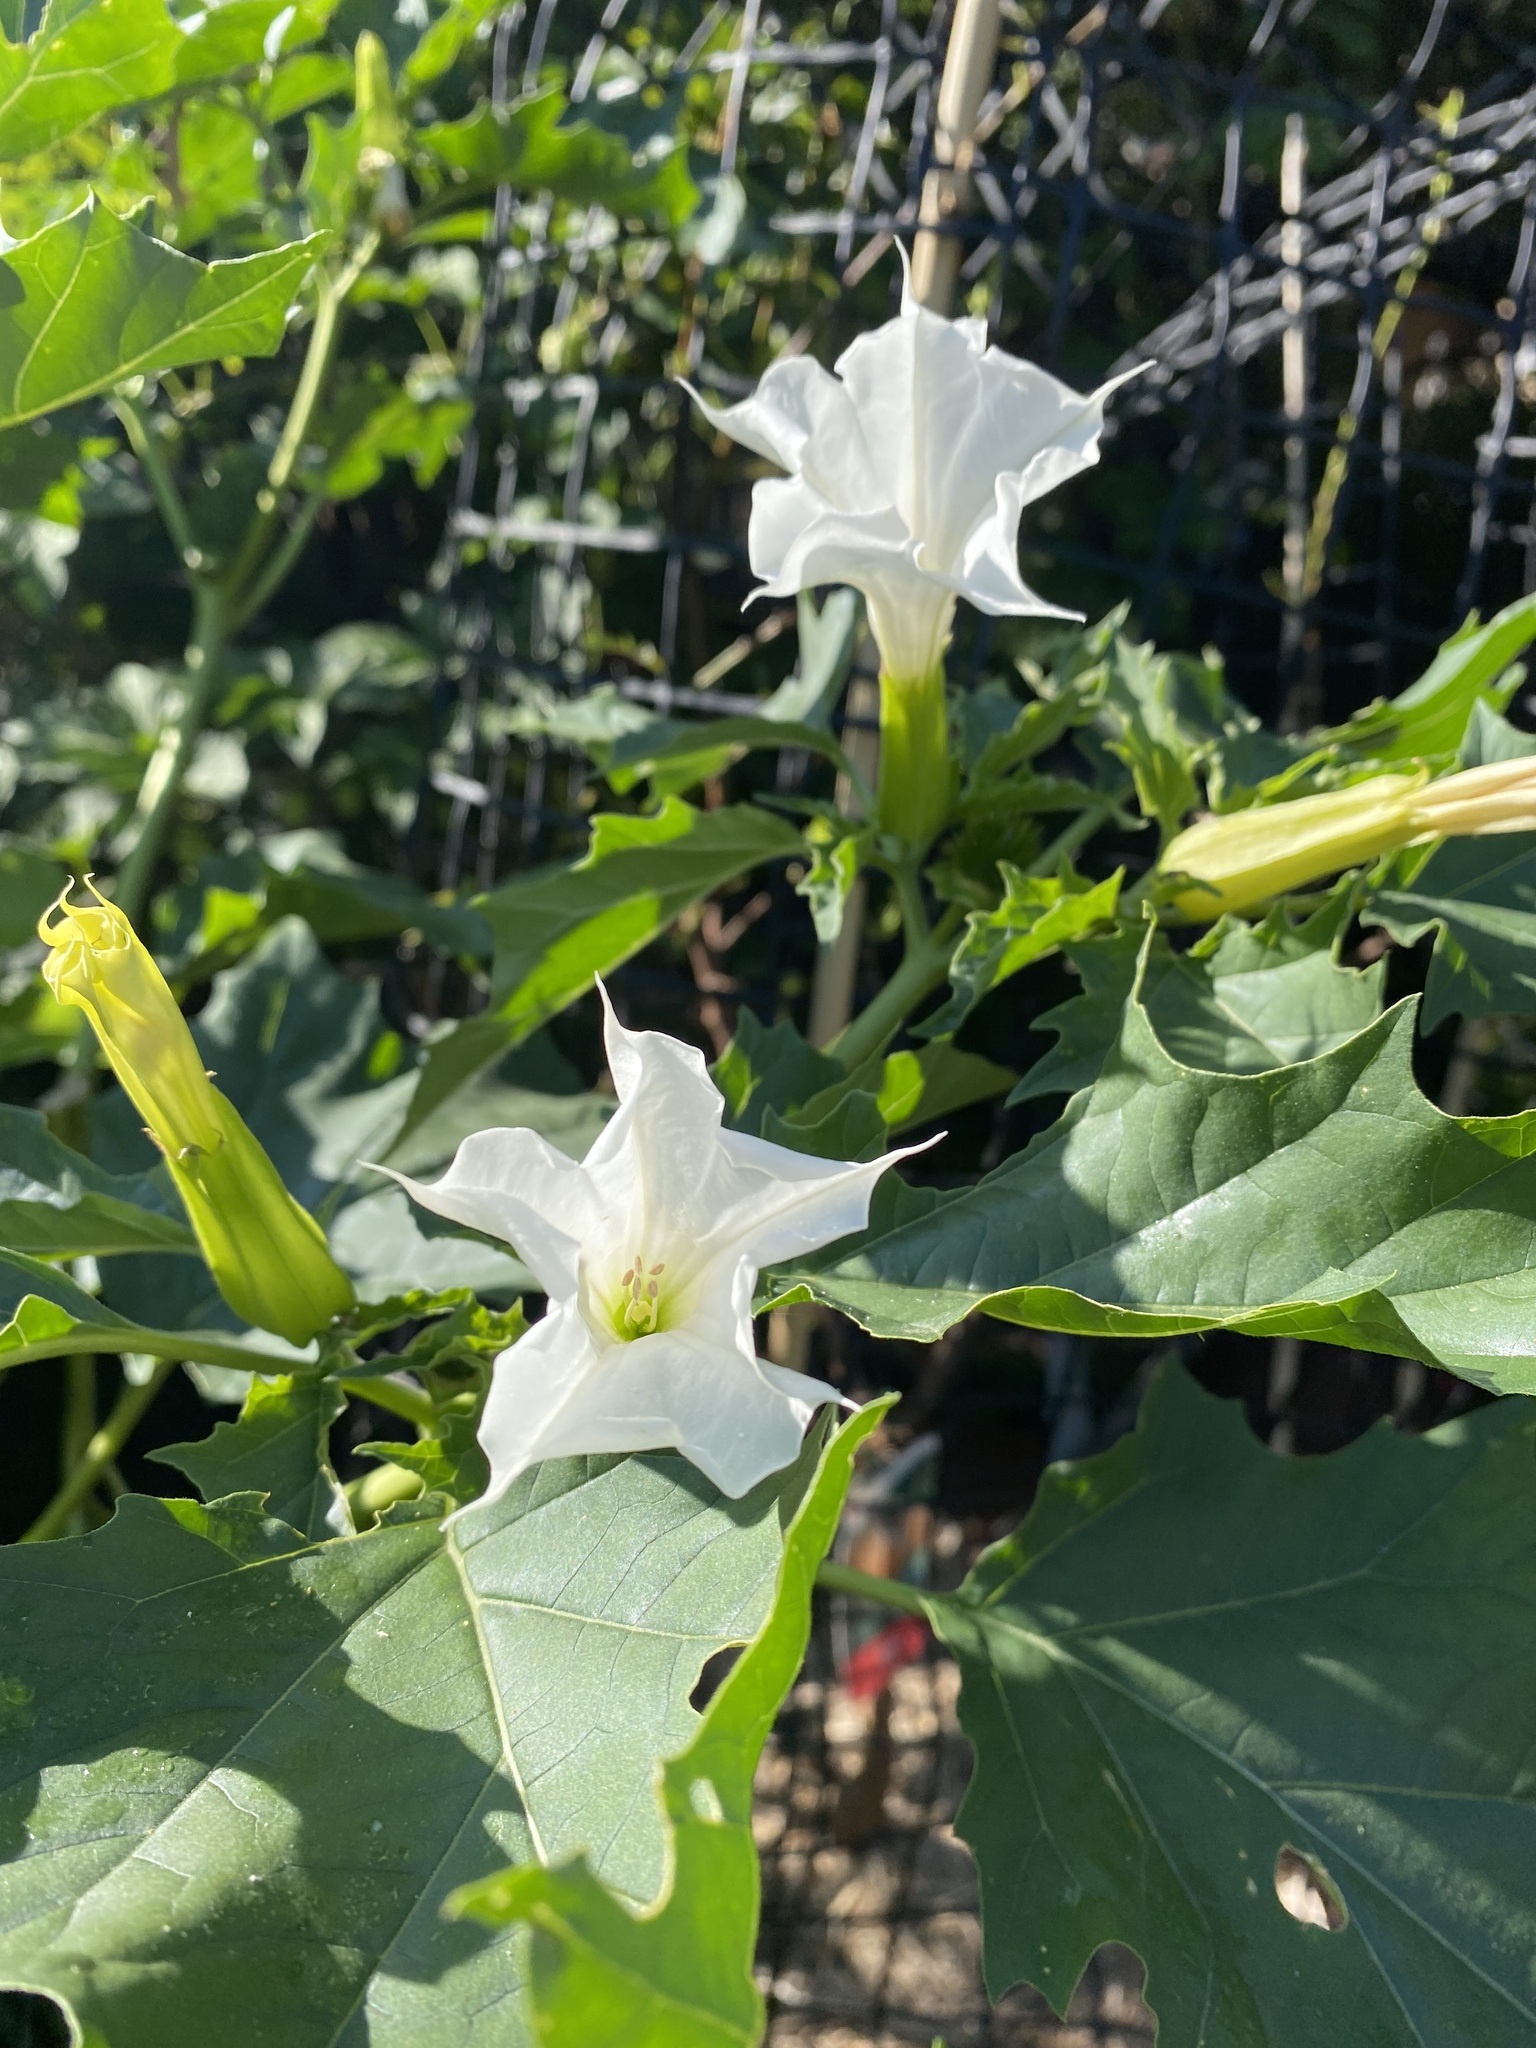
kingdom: Plantae
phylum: Tracheophyta
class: Magnoliopsida
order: Solanales
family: Solanaceae
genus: Datura
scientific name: Datura stramonium
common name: Thorn-apple
